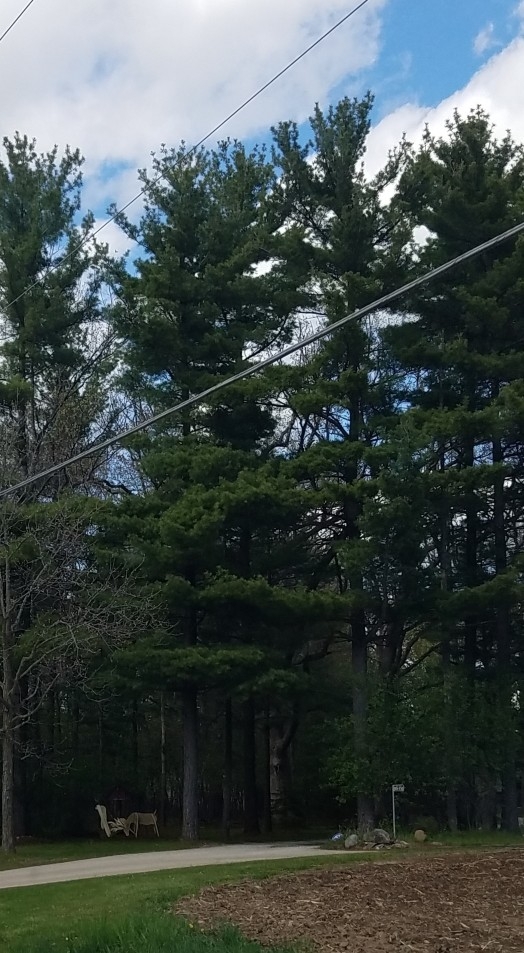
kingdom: Plantae
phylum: Tracheophyta
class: Pinopsida
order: Pinales
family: Pinaceae
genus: Pinus
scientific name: Pinus strobus
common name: Weymouth pine
